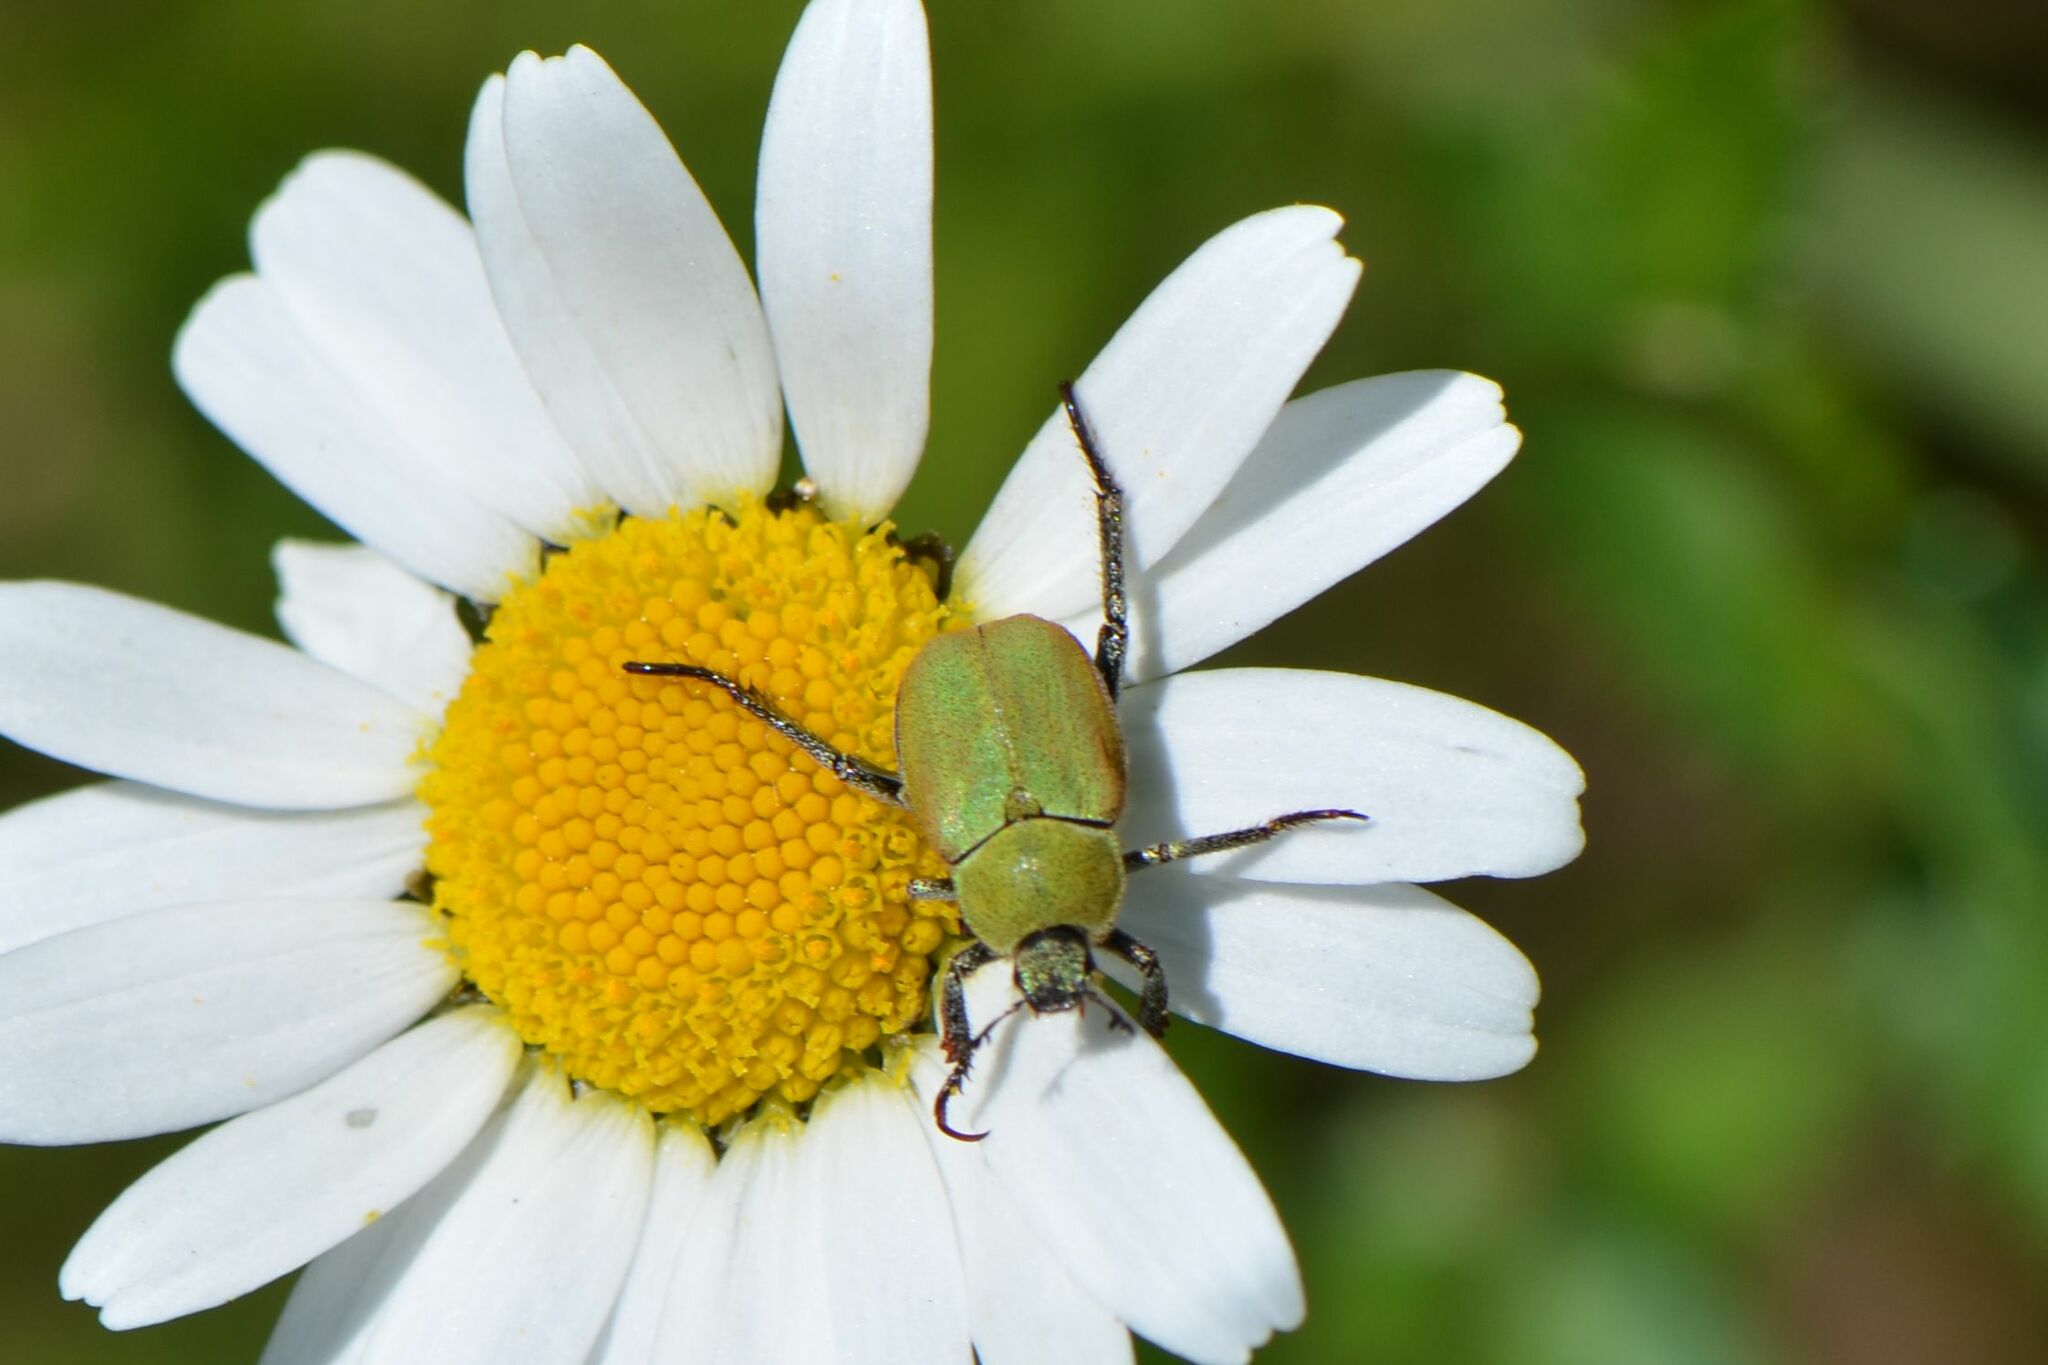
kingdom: Animalia
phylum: Arthropoda
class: Insecta
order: Coleoptera
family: Scarabaeidae
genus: Hoplia
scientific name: Hoplia argentea
